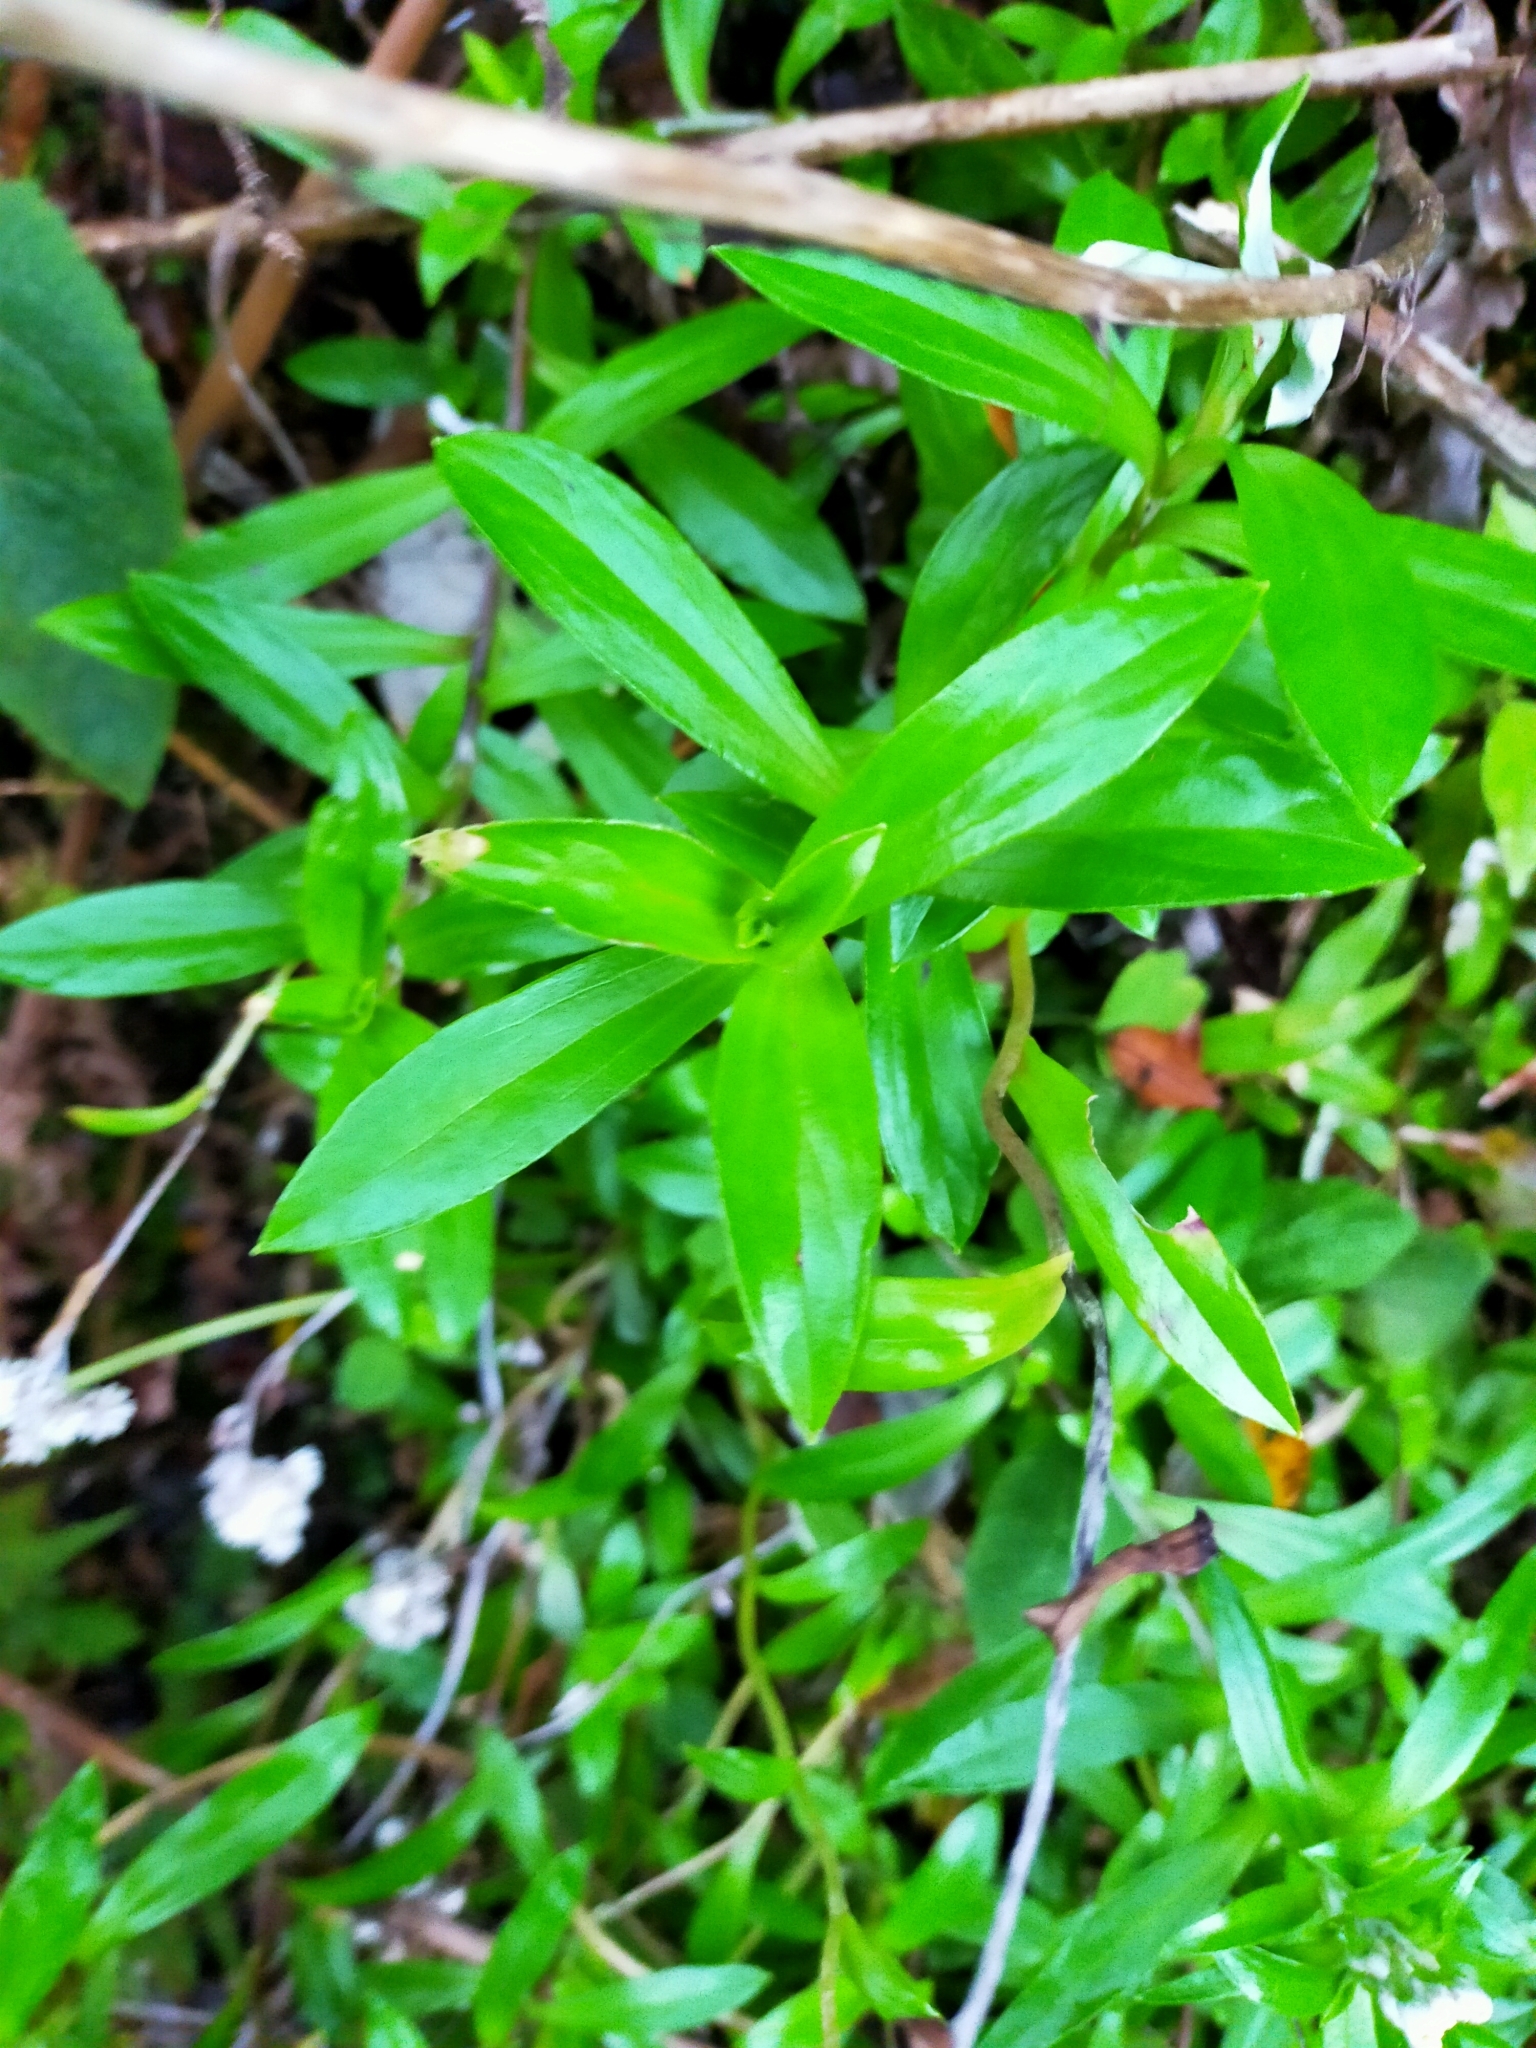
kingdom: Plantae
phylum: Tracheophyta
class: Magnoliopsida
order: Asterales
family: Asteraceae
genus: Anaphalioides
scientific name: Anaphalioides trinervis
